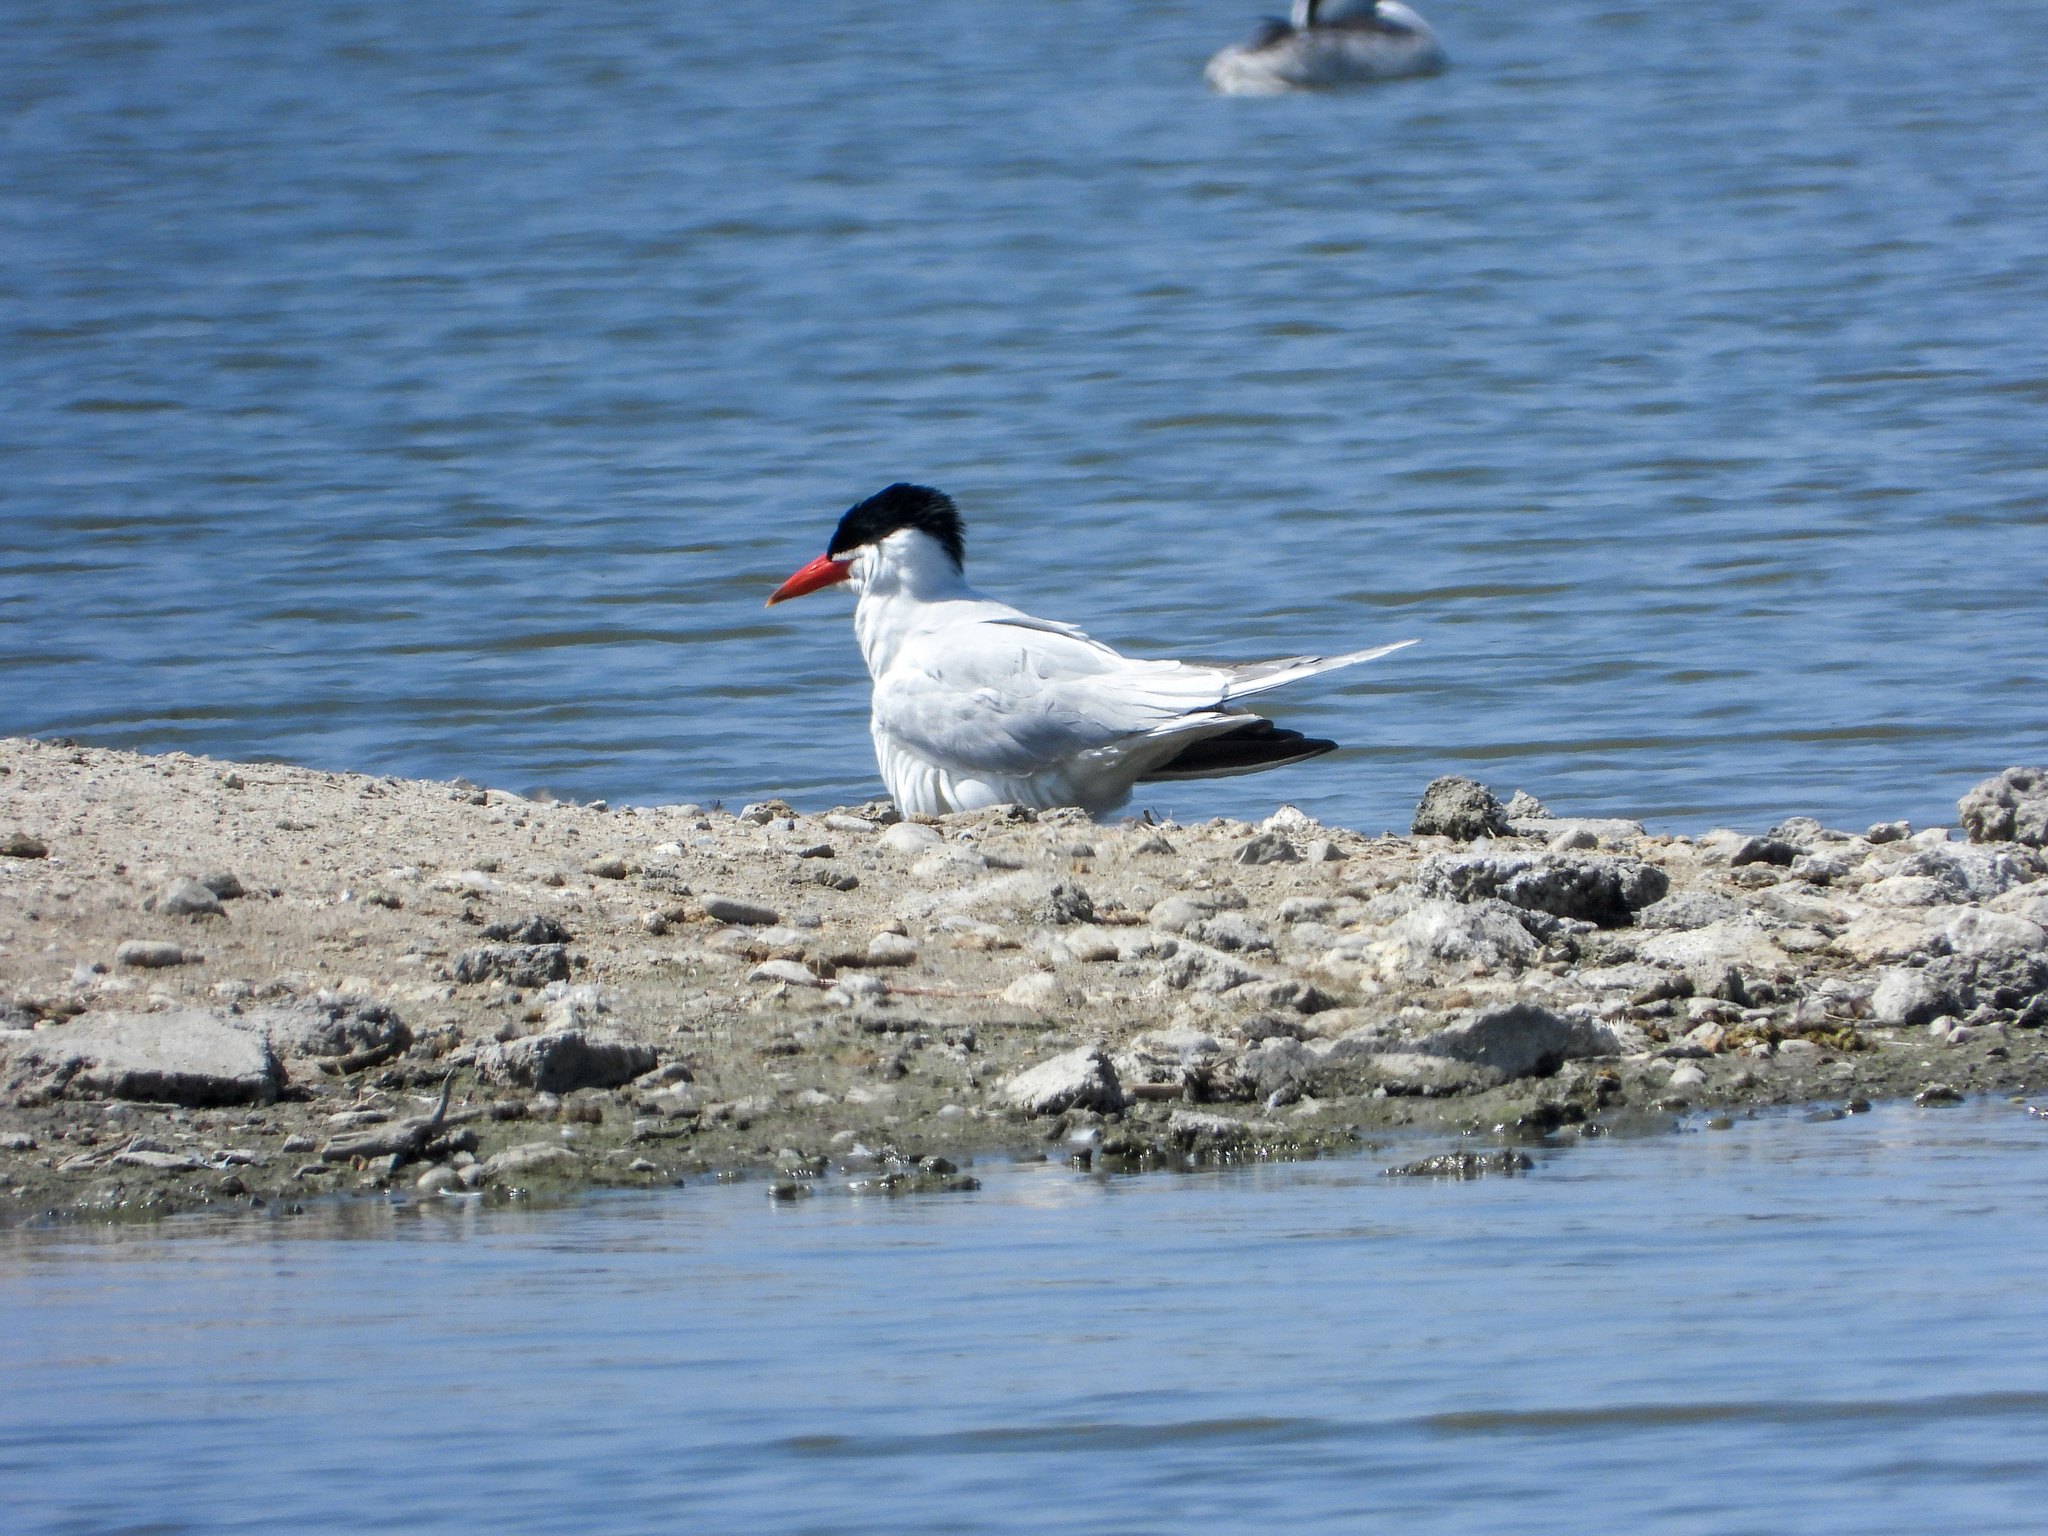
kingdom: Animalia
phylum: Chordata
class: Aves
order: Charadriiformes
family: Laridae
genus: Hydroprogne
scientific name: Hydroprogne caspia
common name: Caspian tern
